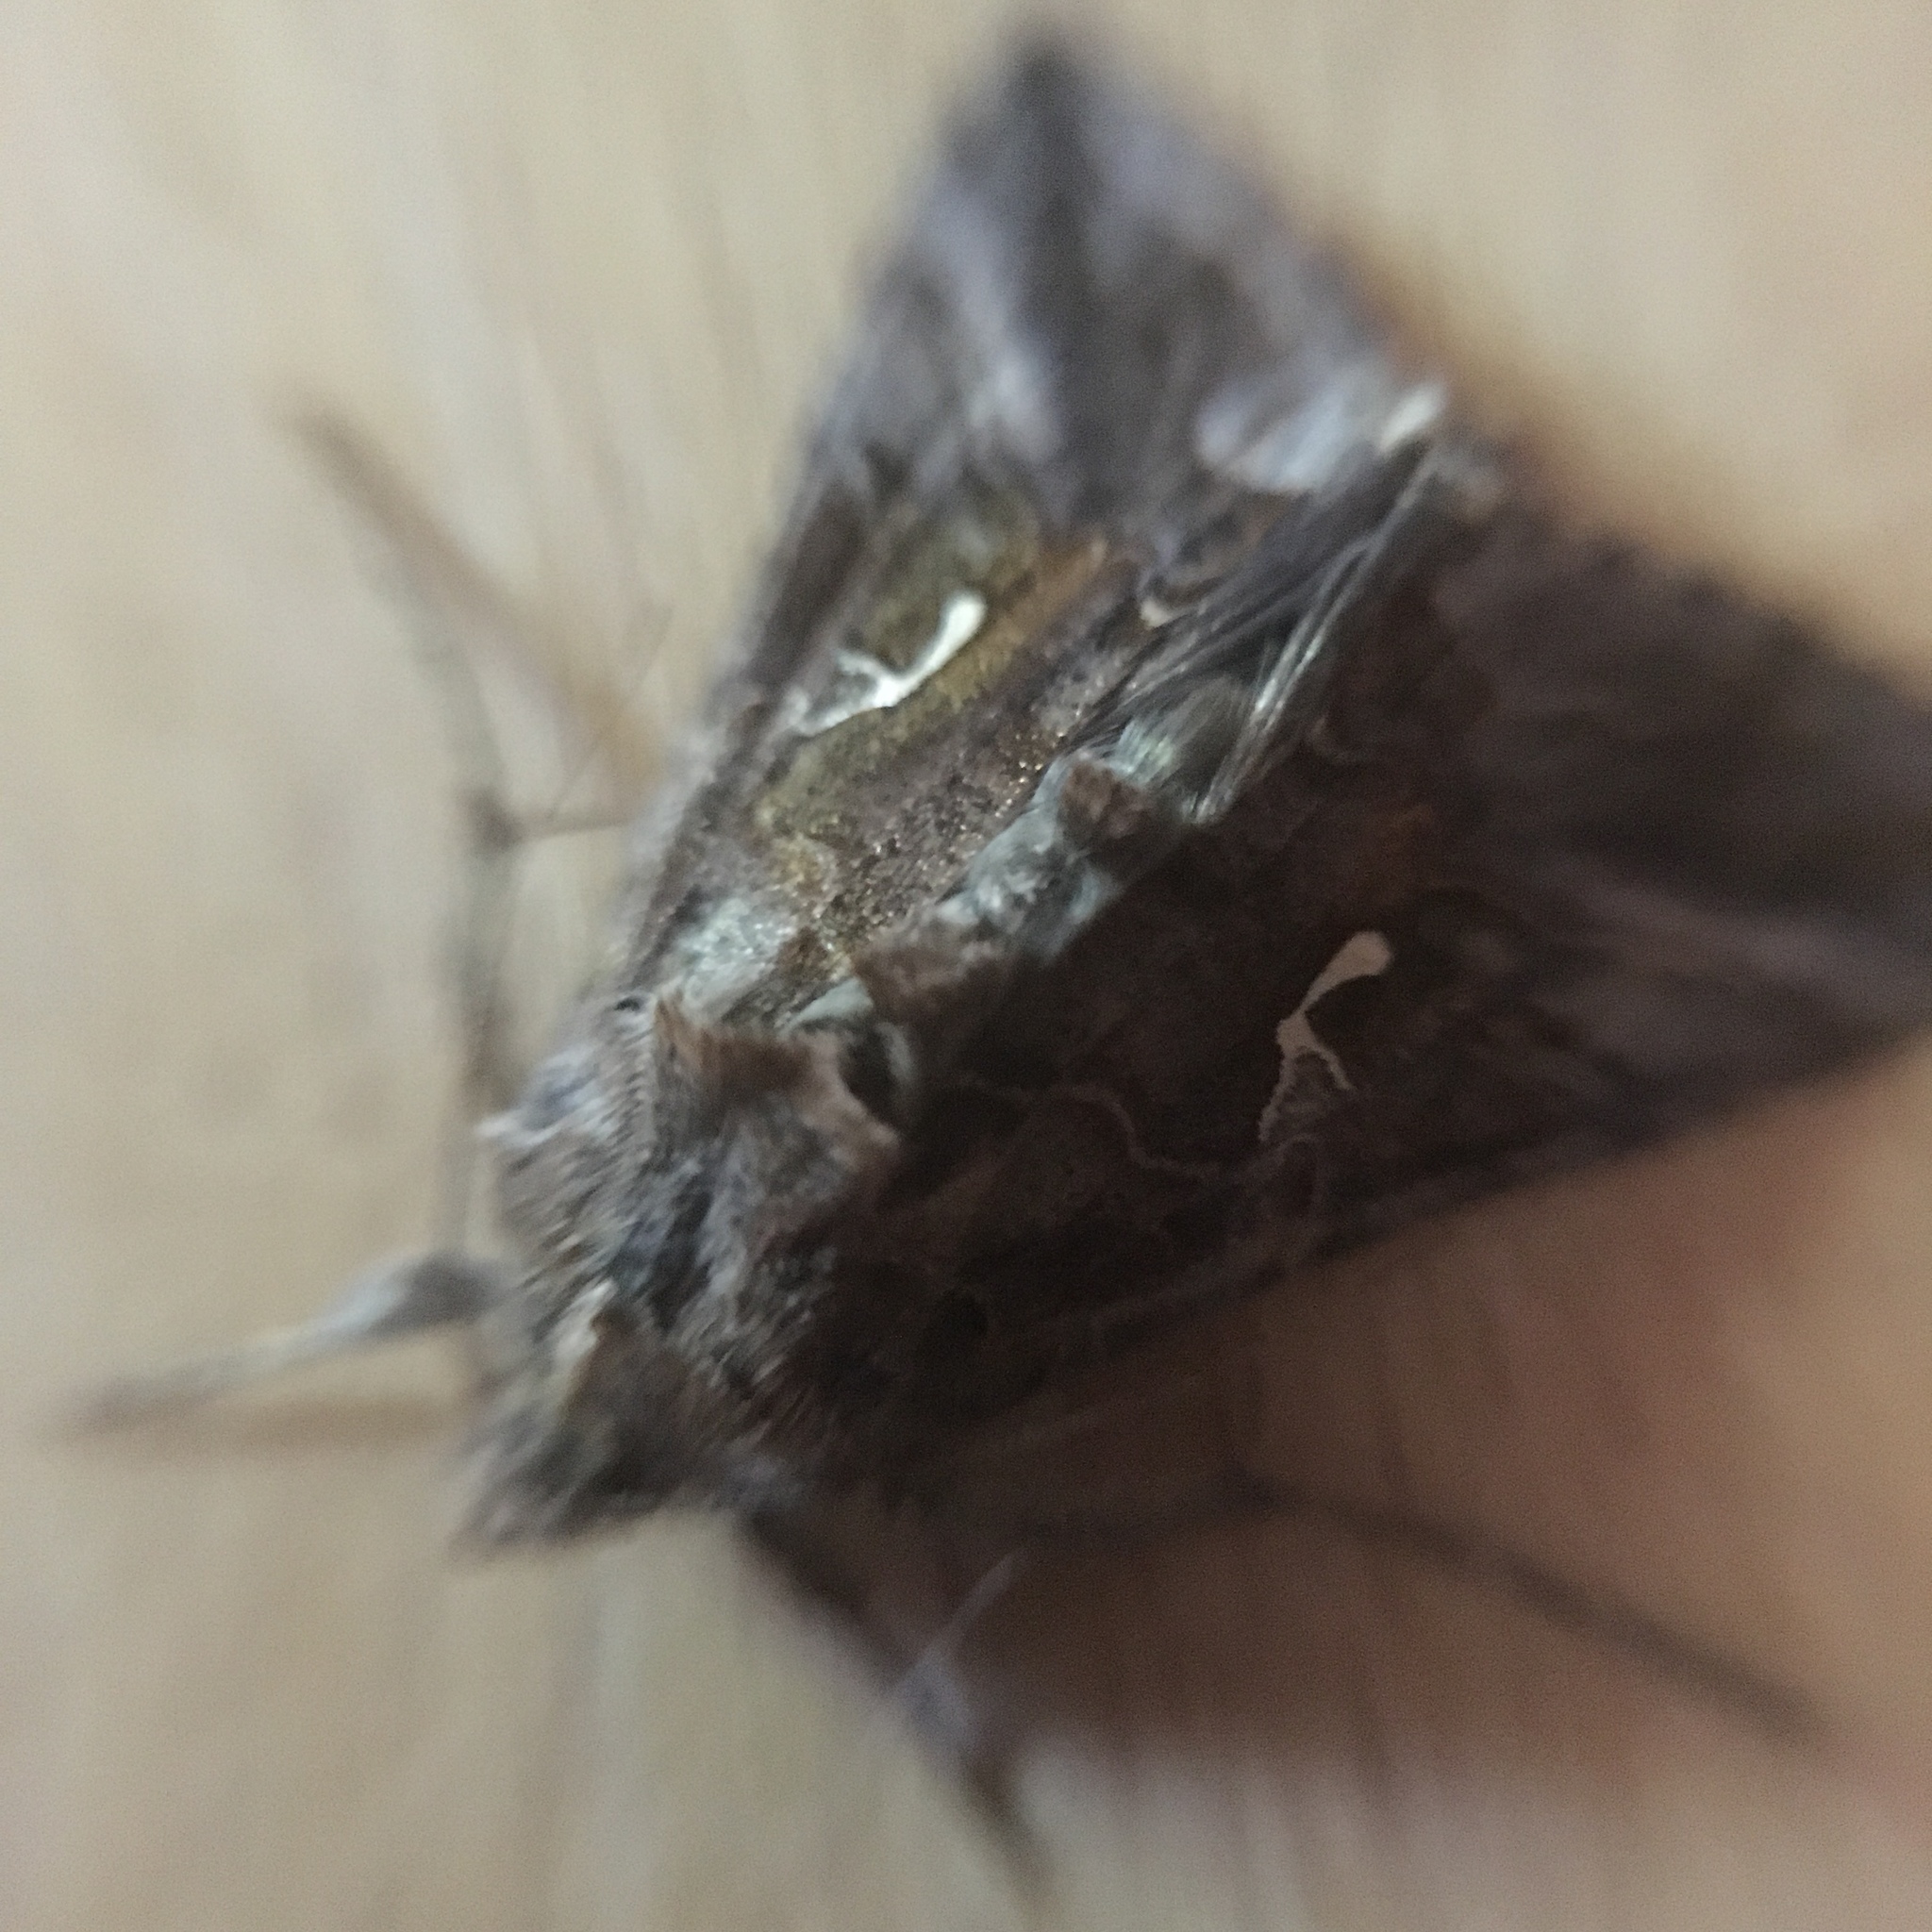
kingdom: Animalia
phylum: Arthropoda
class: Insecta
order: Lepidoptera
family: Noctuidae
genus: Autographa
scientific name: Autographa gamma
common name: Silver y
